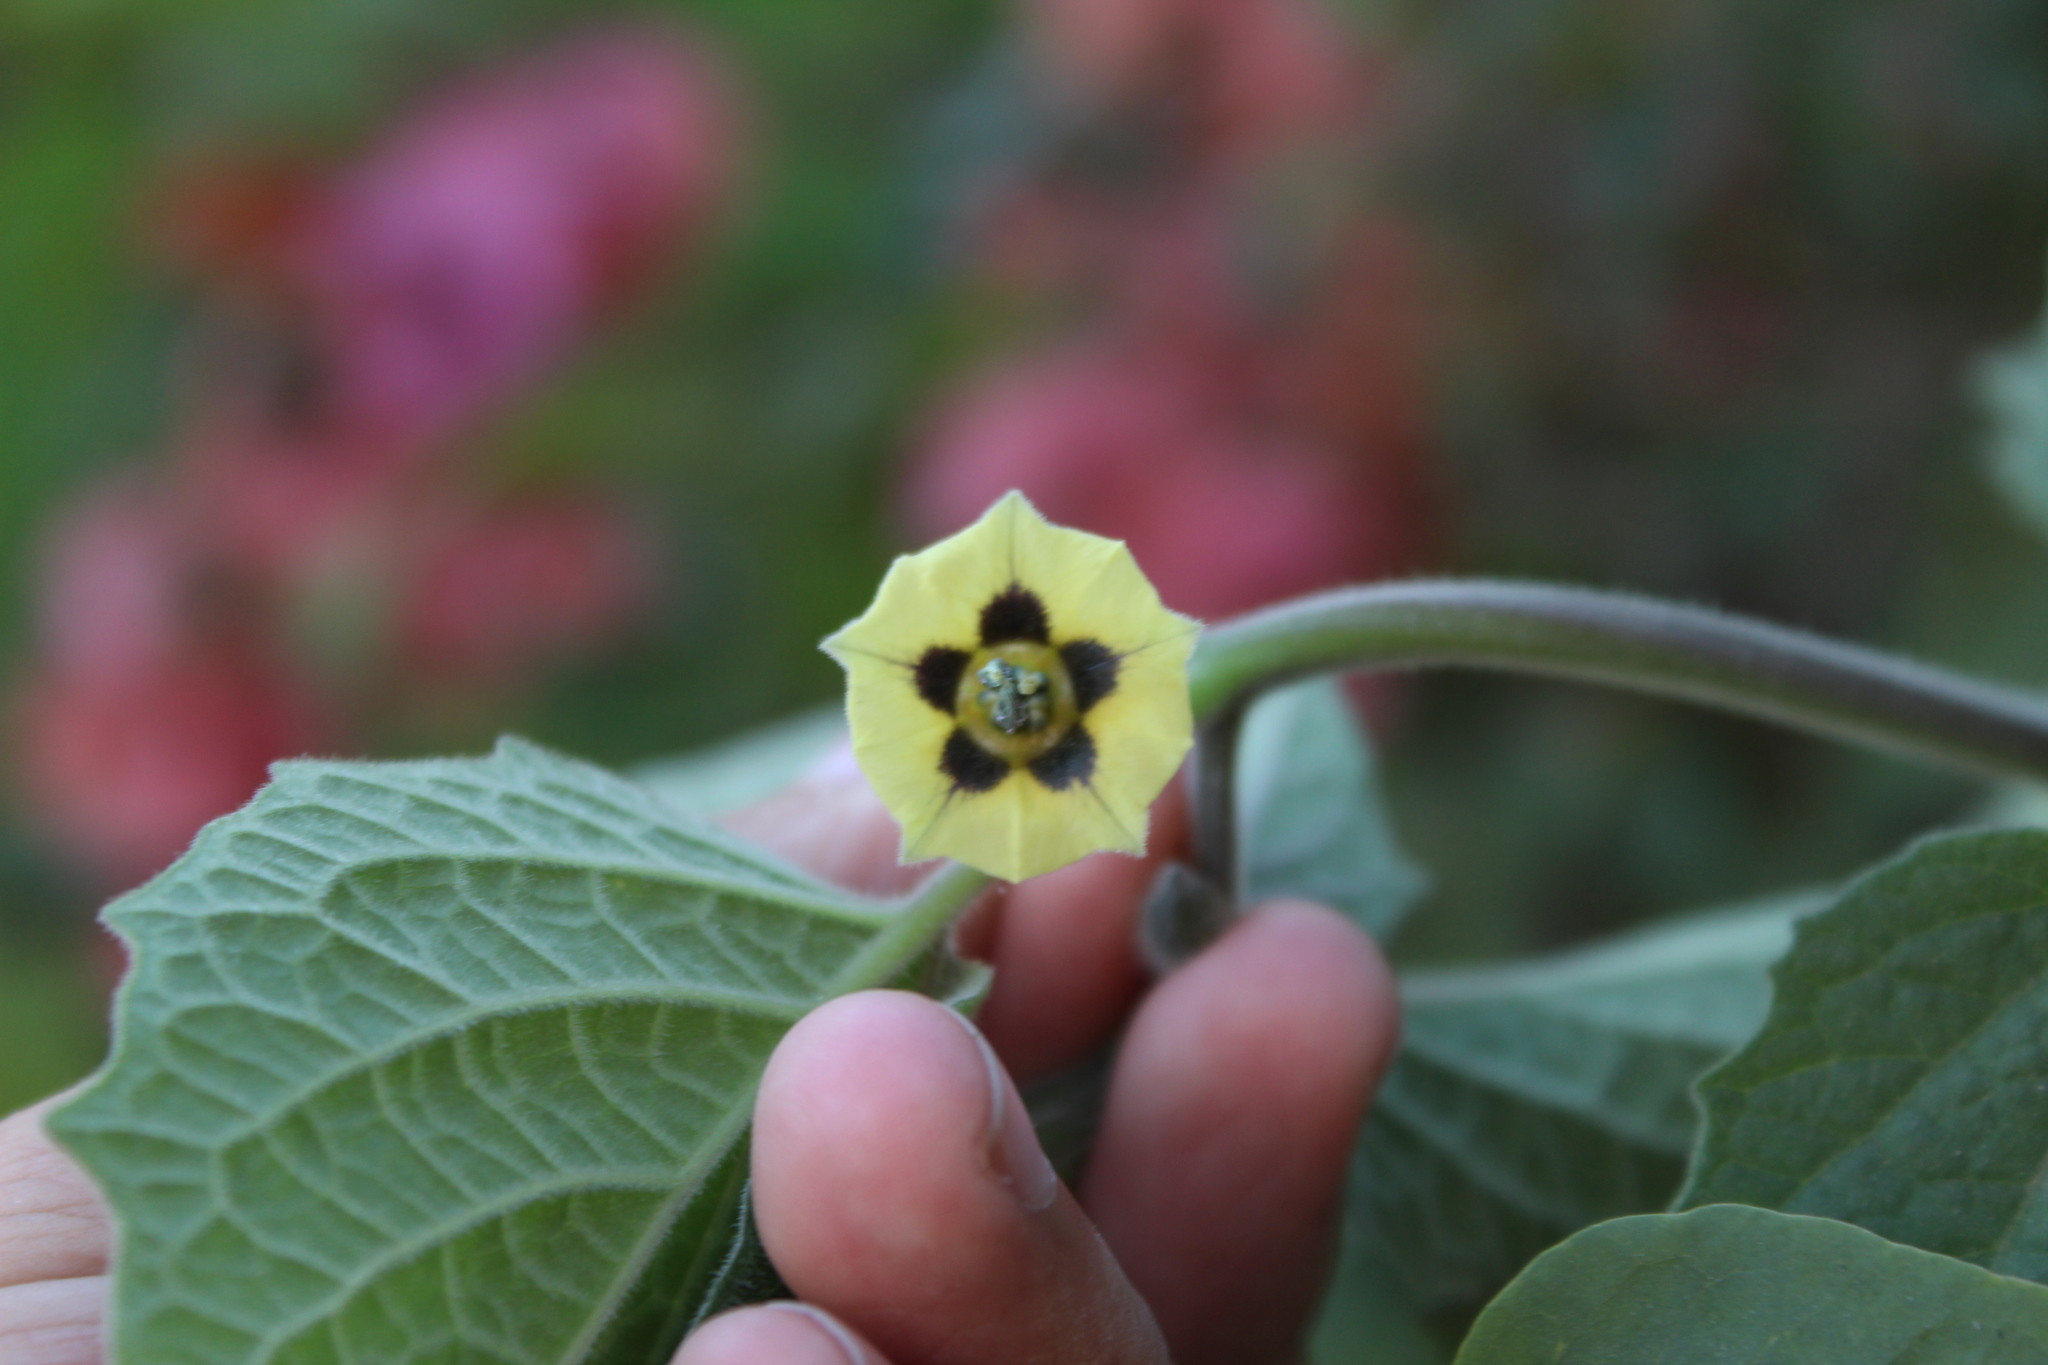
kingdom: Plantae
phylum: Tracheophyta
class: Magnoliopsida
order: Solanales
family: Solanaceae
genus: Physalis
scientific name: Physalis peruviana
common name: Cape-gooseberry
